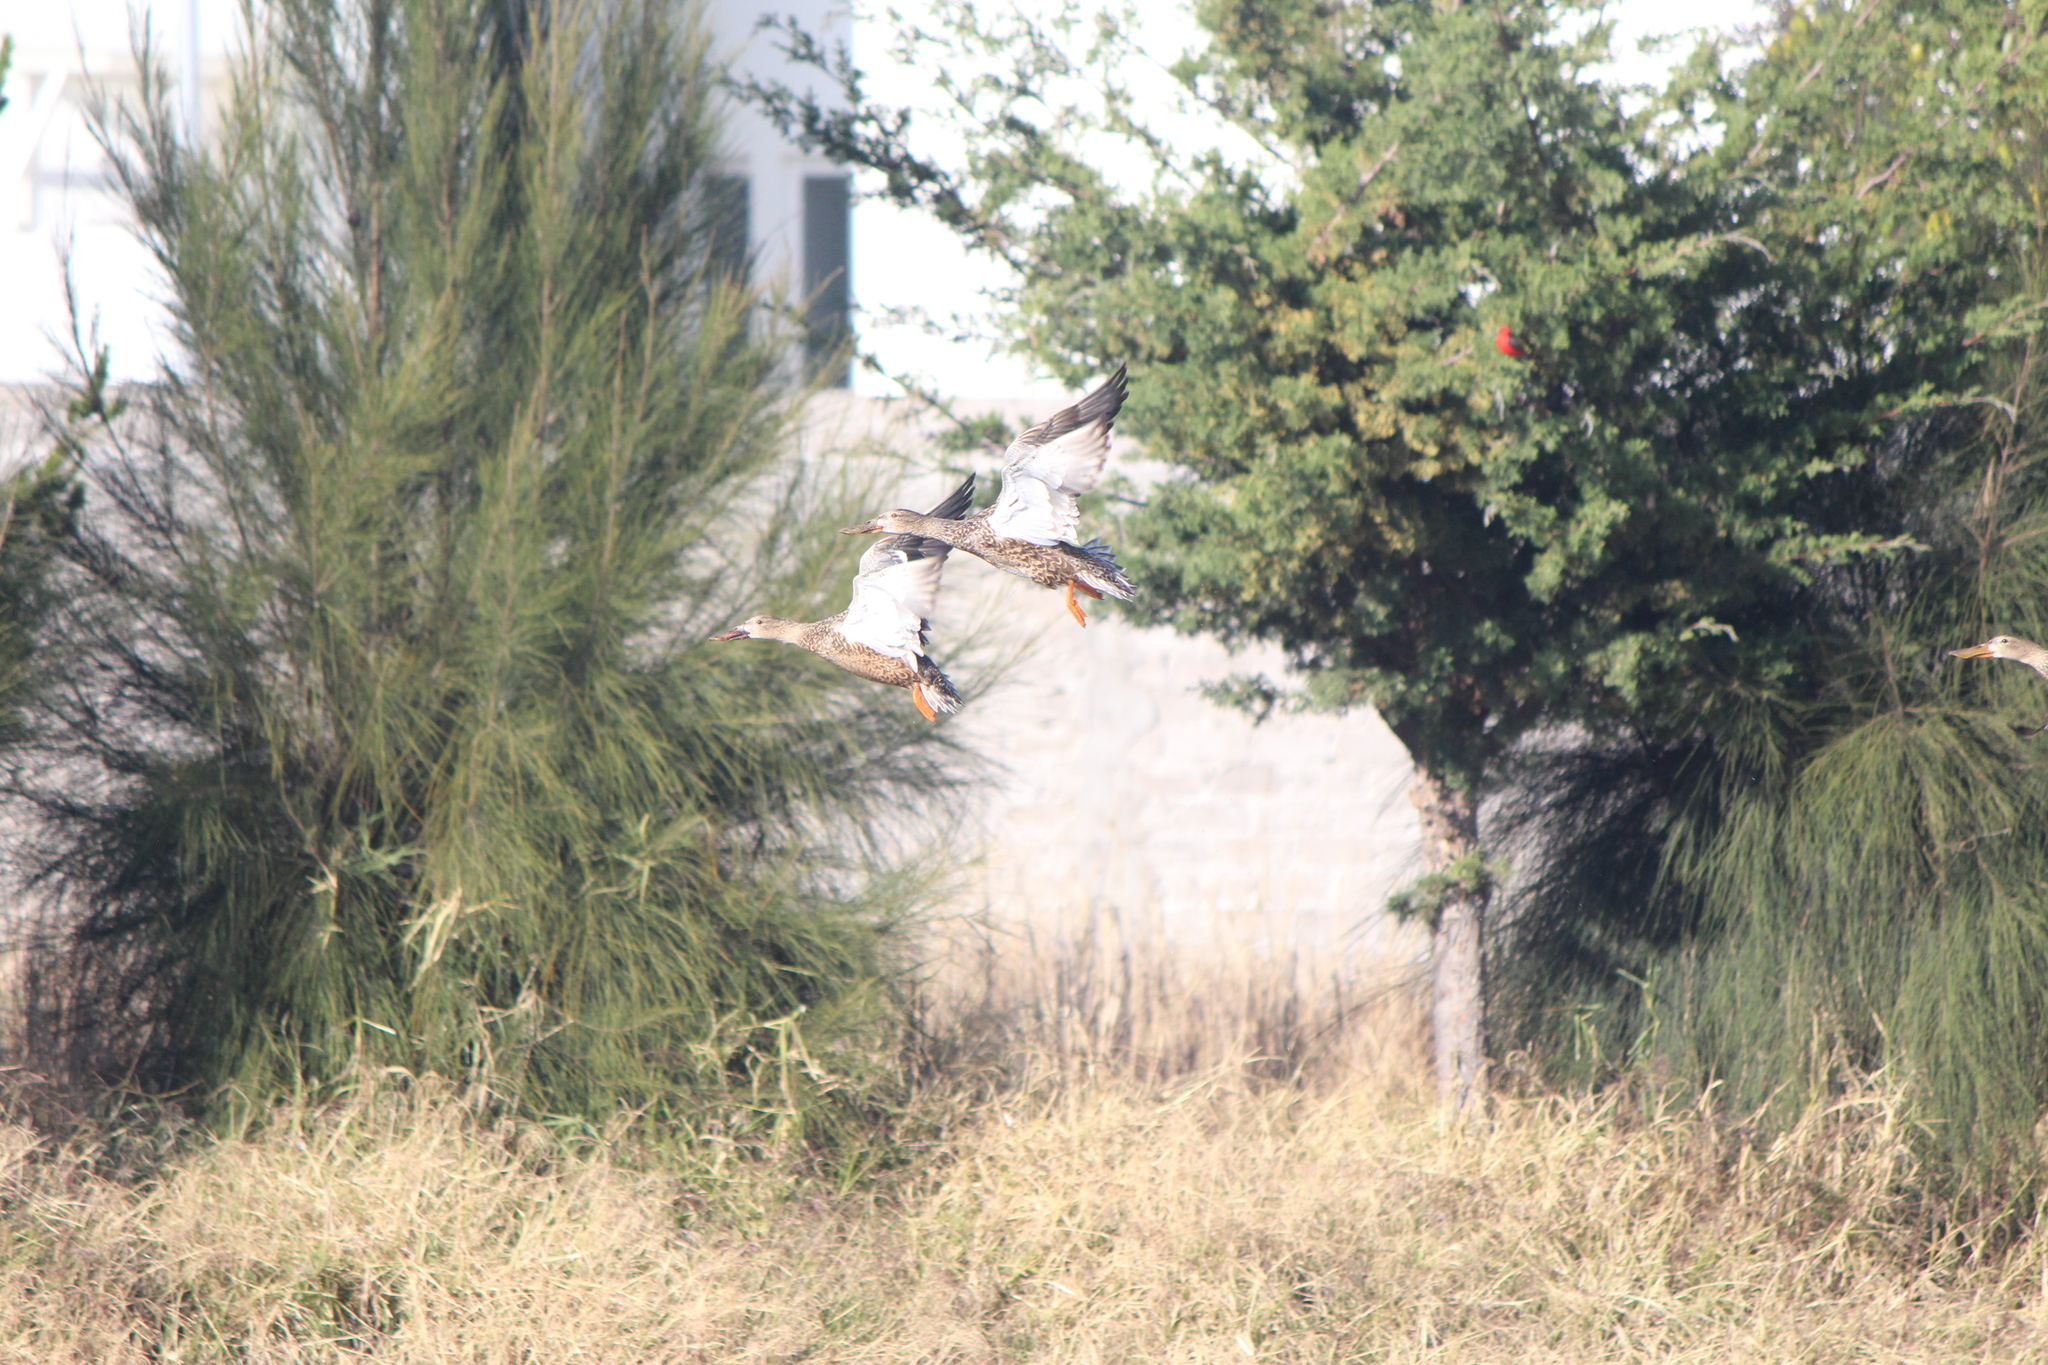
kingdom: Animalia
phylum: Chordata
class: Aves
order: Anseriformes
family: Anatidae
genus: Spatula
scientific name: Spatula clypeata
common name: Northern shoveler
